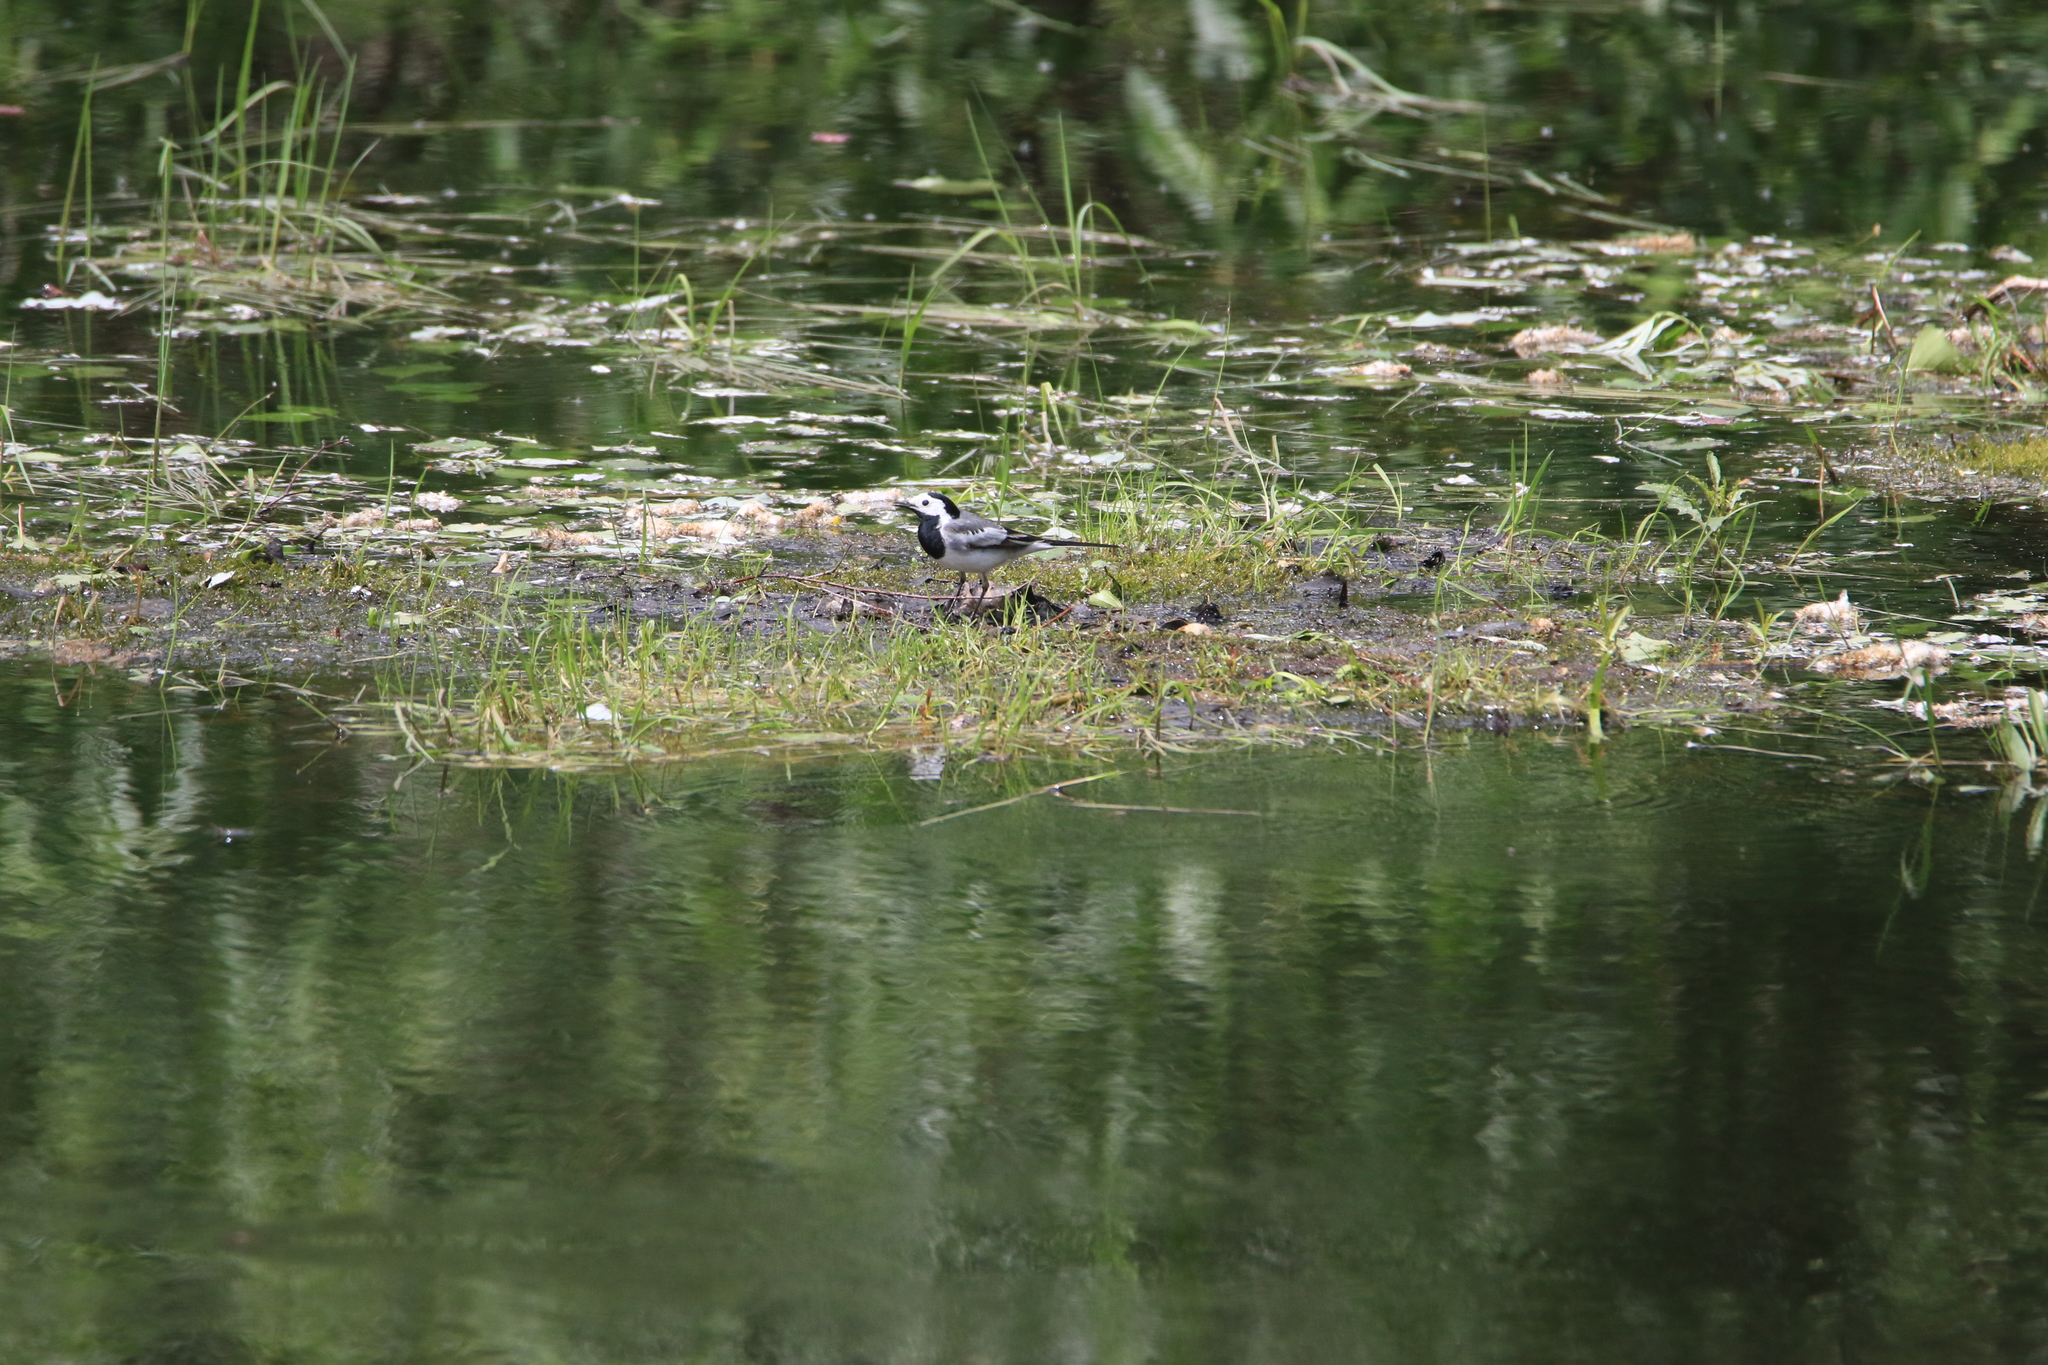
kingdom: Animalia
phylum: Chordata
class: Aves
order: Passeriformes
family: Motacillidae
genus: Motacilla
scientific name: Motacilla alba
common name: White wagtail
